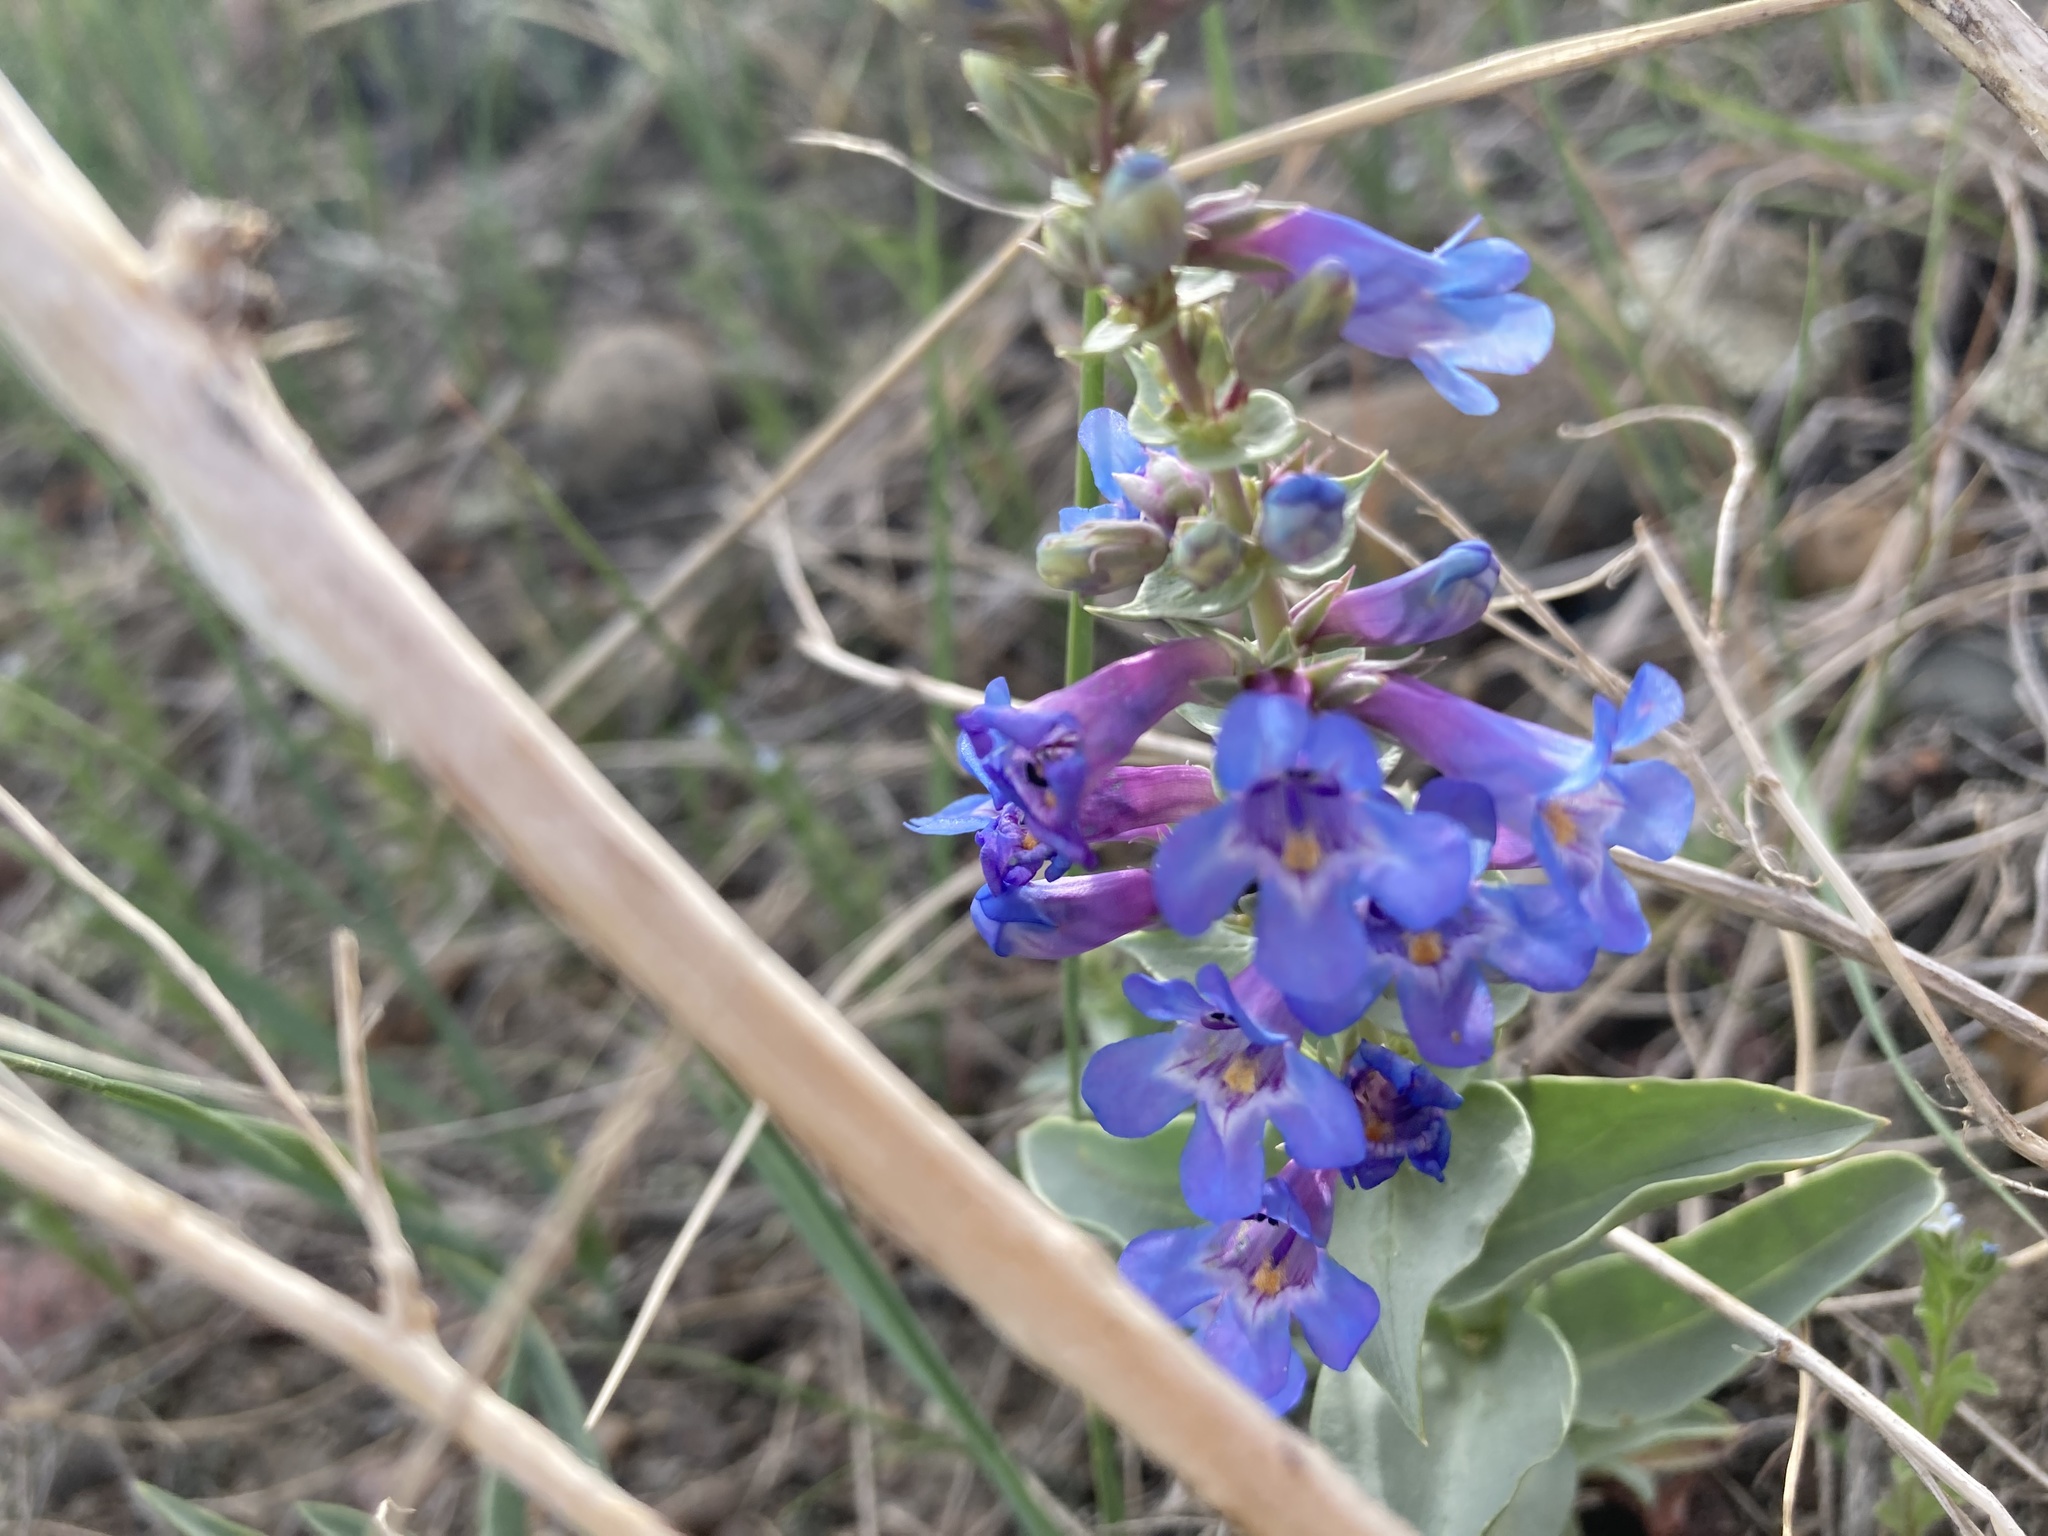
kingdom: Plantae
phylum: Tracheophyta
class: Magnoliopsida
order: Lamiales
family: Plantaginaceae
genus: Penstemon
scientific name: Penstemon nitidus
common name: Shining penstemon
